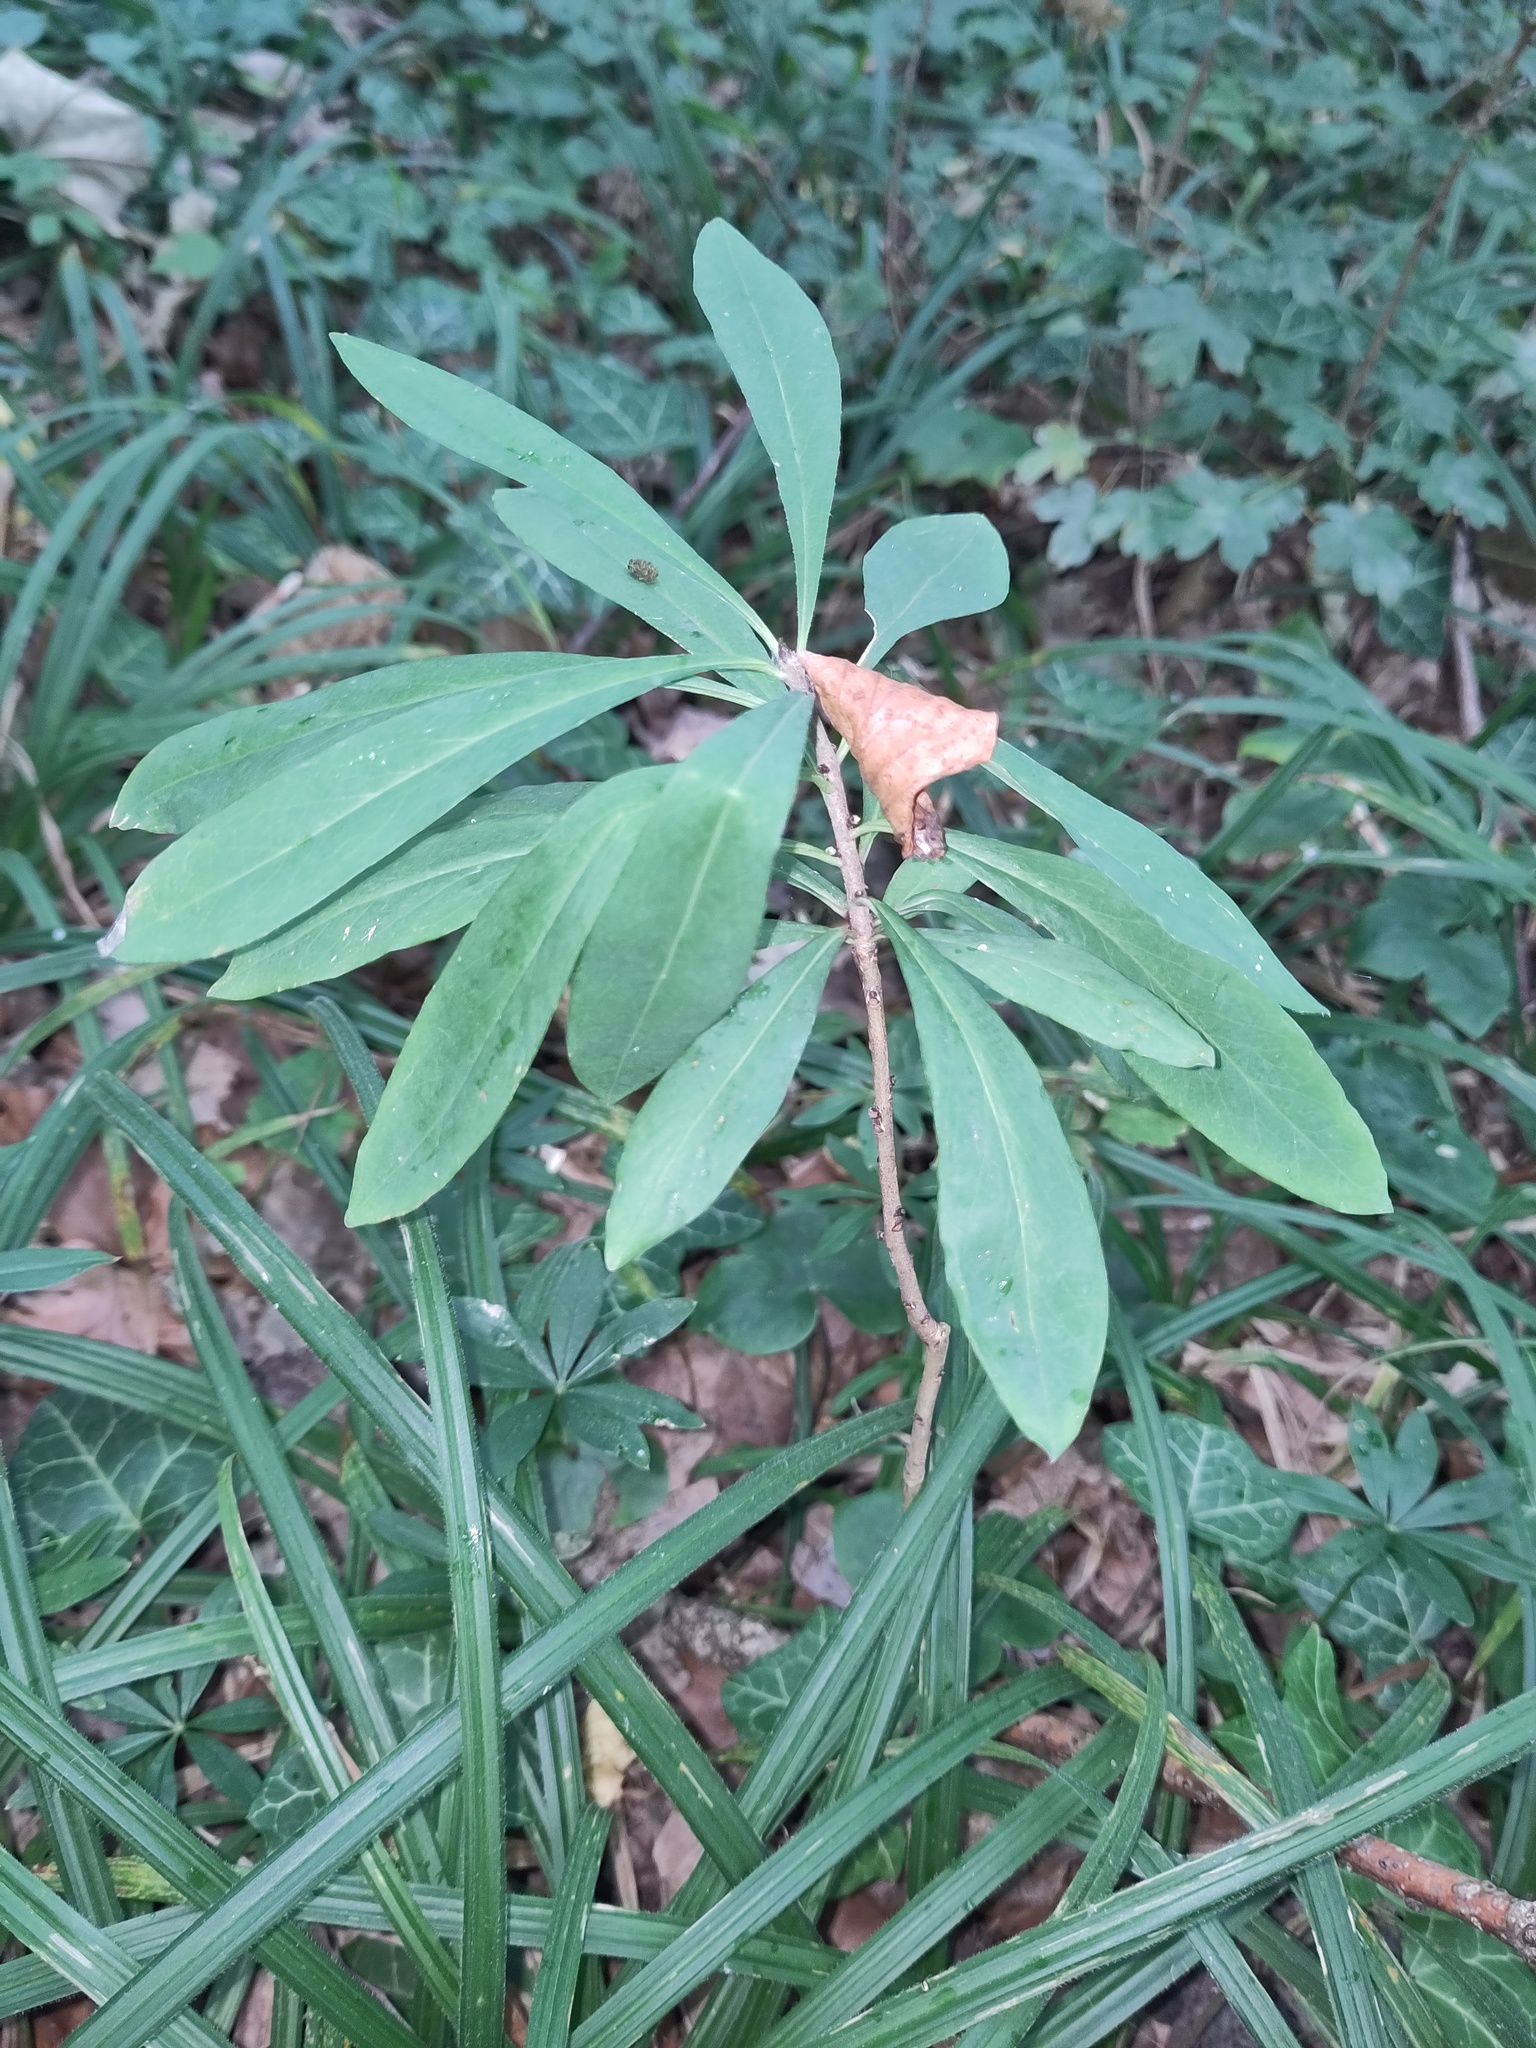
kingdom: Plantae
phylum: Tracheophyta
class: Magnoliopsida
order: Malvales
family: Thymelaeaceae
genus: Daphne
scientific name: Daphne mezereum
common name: Mezereon
